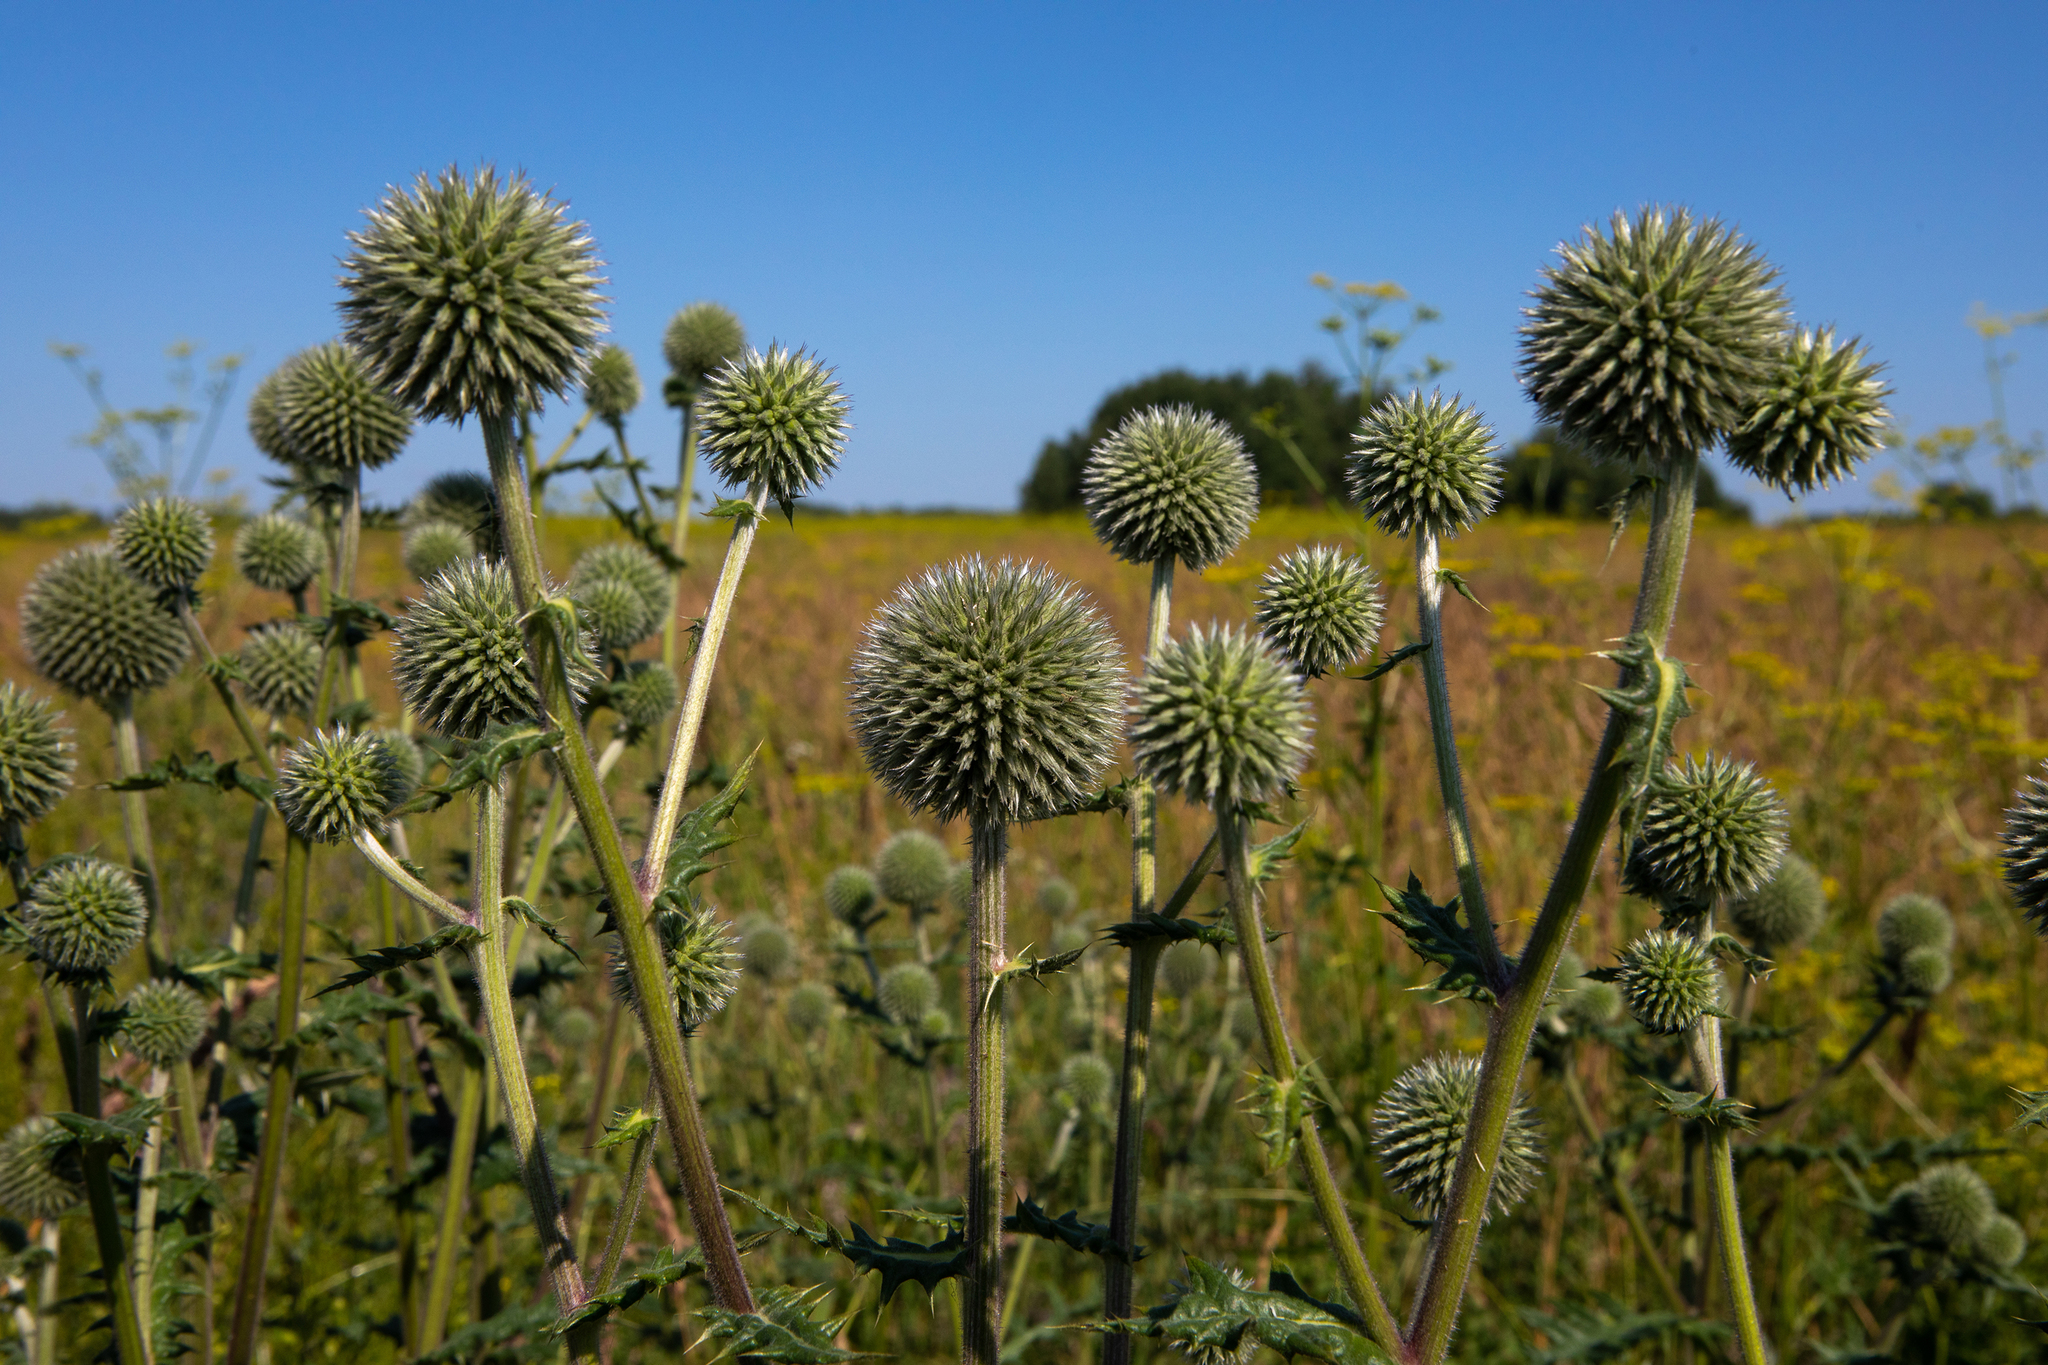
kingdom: Plantae
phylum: Tracheophyta
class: Magnoliopsida
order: Asterales
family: Asteraceae
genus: Echinops
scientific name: Echinops sphaerocephalus
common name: Glandular globe-thistle
